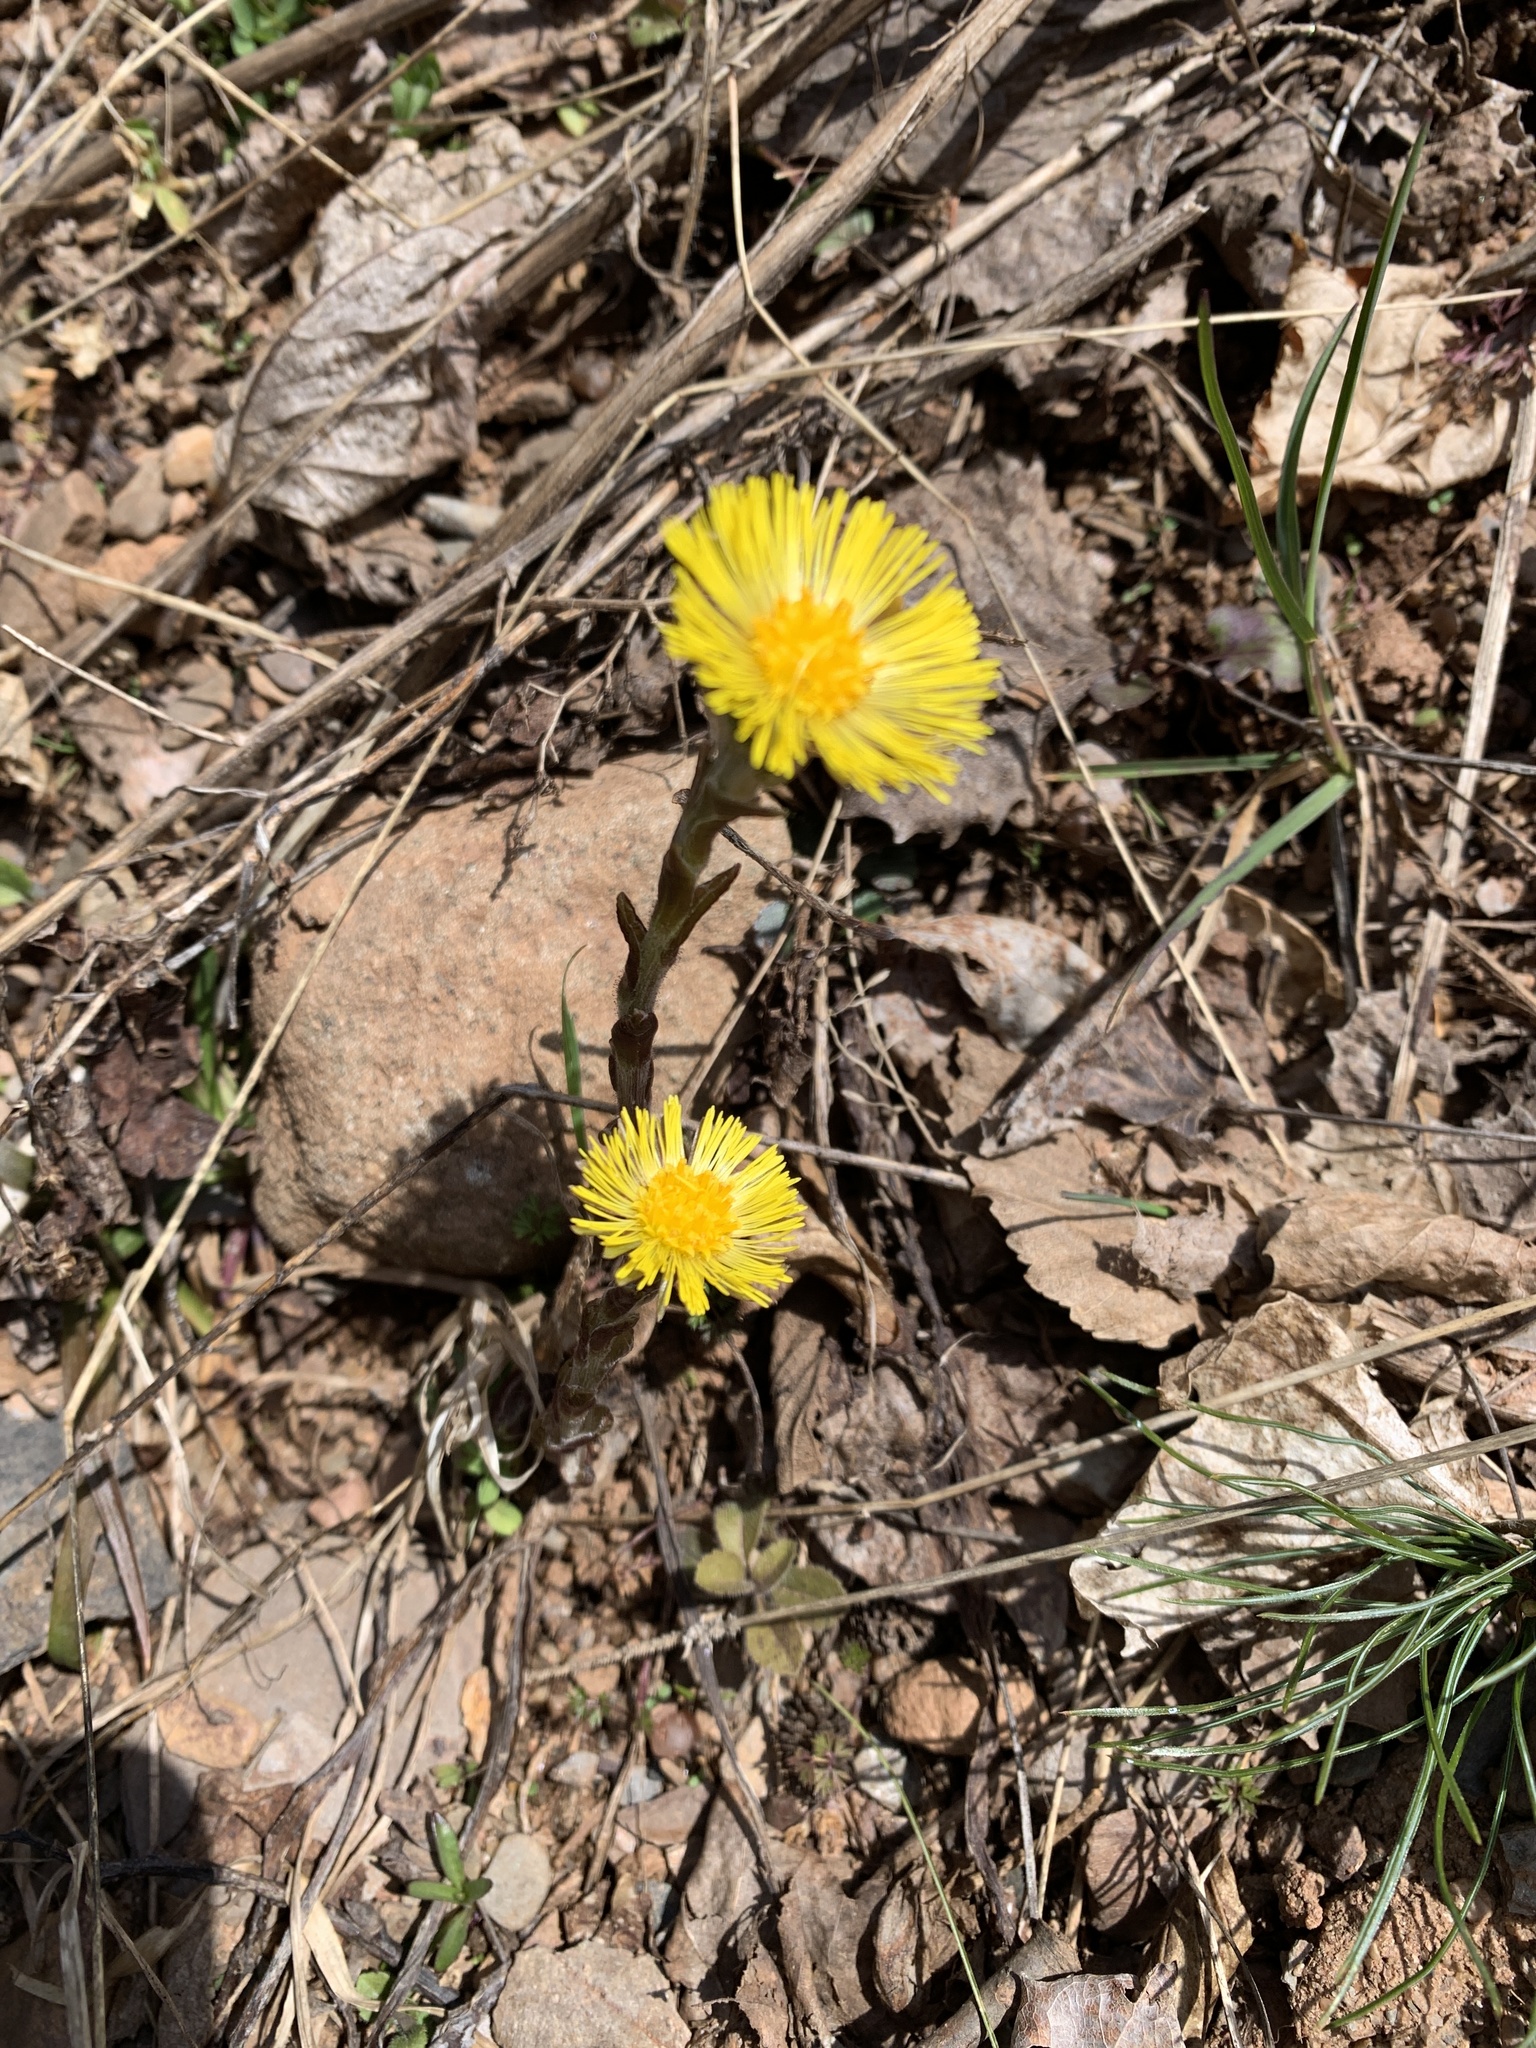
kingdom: Plantae
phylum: Tracheophyta
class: Magnoliopsida
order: Asterales
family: Asteraceae
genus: Tussilago
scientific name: Tussilago farfara
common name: Coltsfoot
